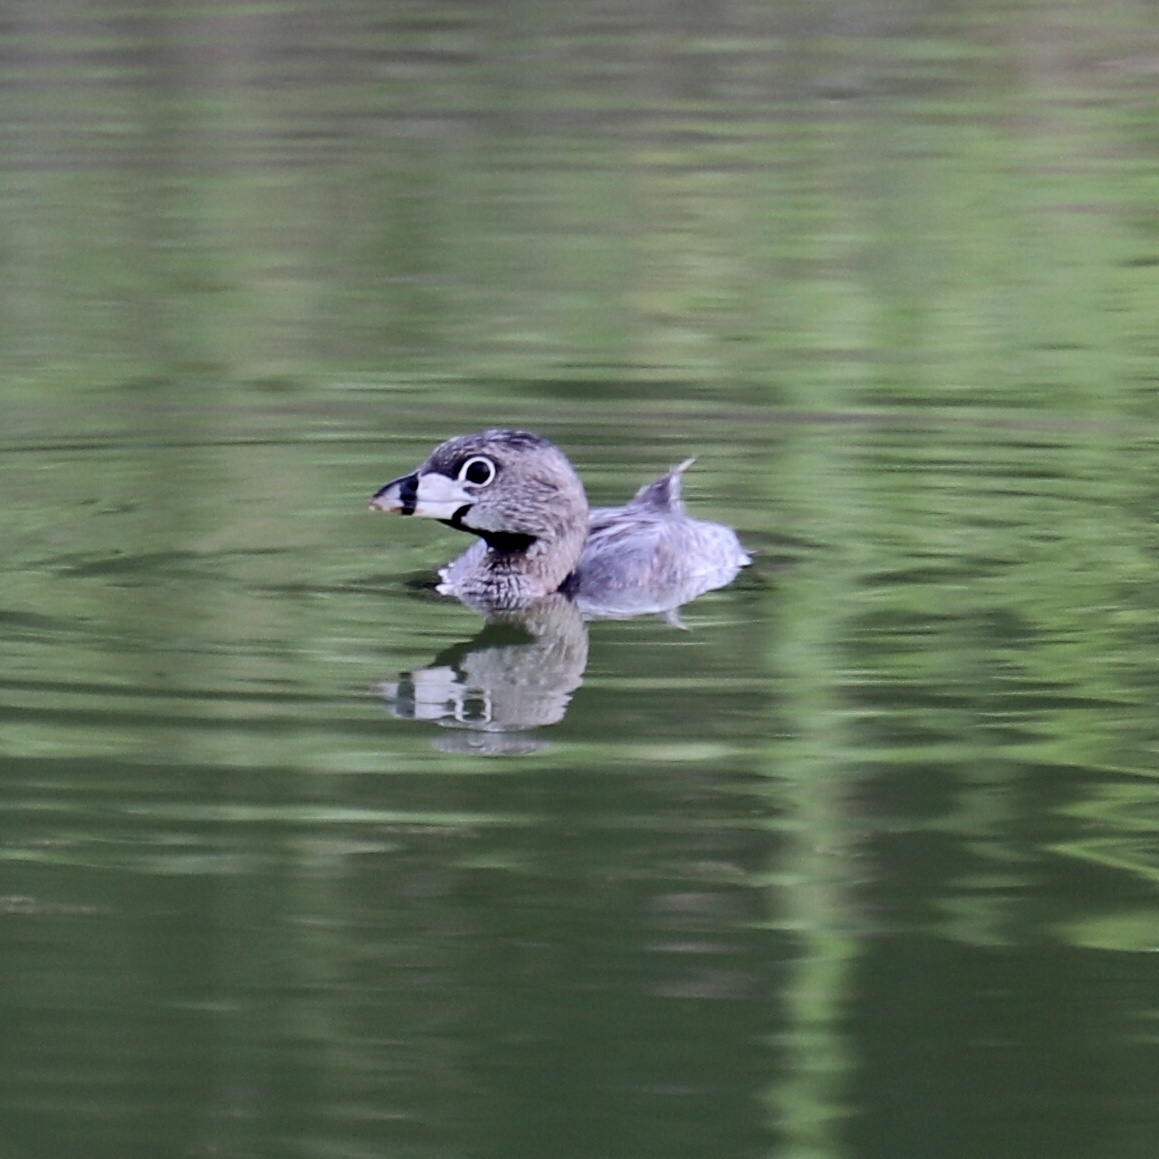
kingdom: Animalia
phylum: Chordata
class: Aves
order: Podicipediformes
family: Podicipedidae
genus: Podilymbus
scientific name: Podilymbus podiceps
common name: Pied-billed grebe
